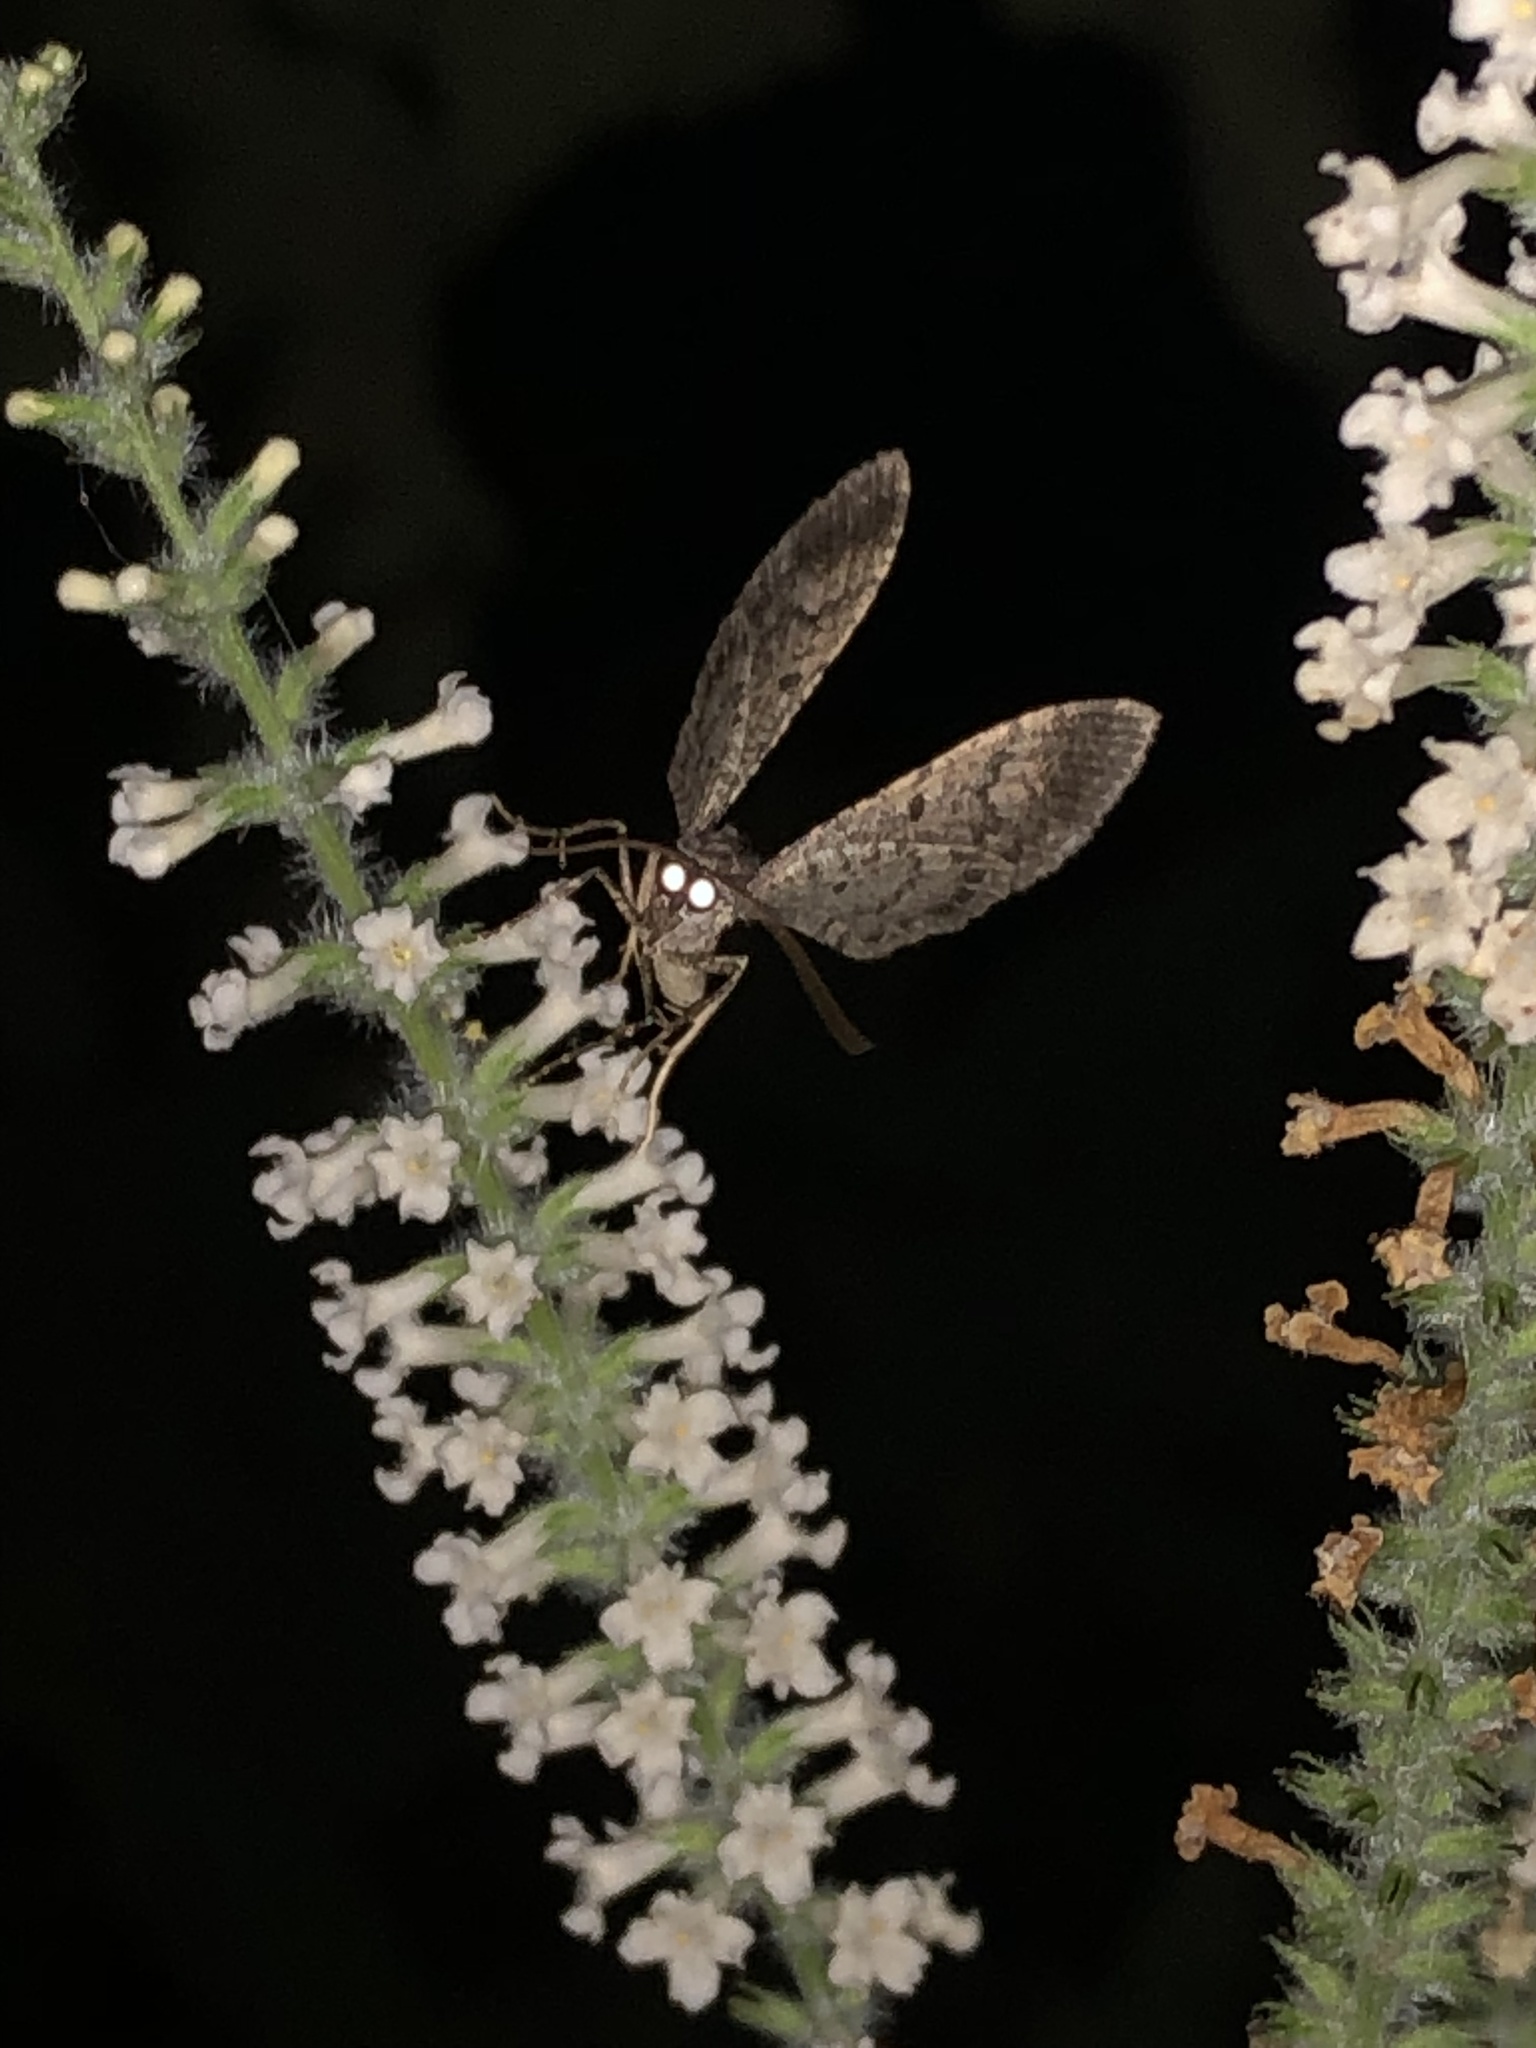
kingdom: Animalia
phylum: Arthropoda
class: Insecta
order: Lepidoptera
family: Geometridae
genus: Disclisioprocta
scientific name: Disclisioprocta stellata
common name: Somber carpet
